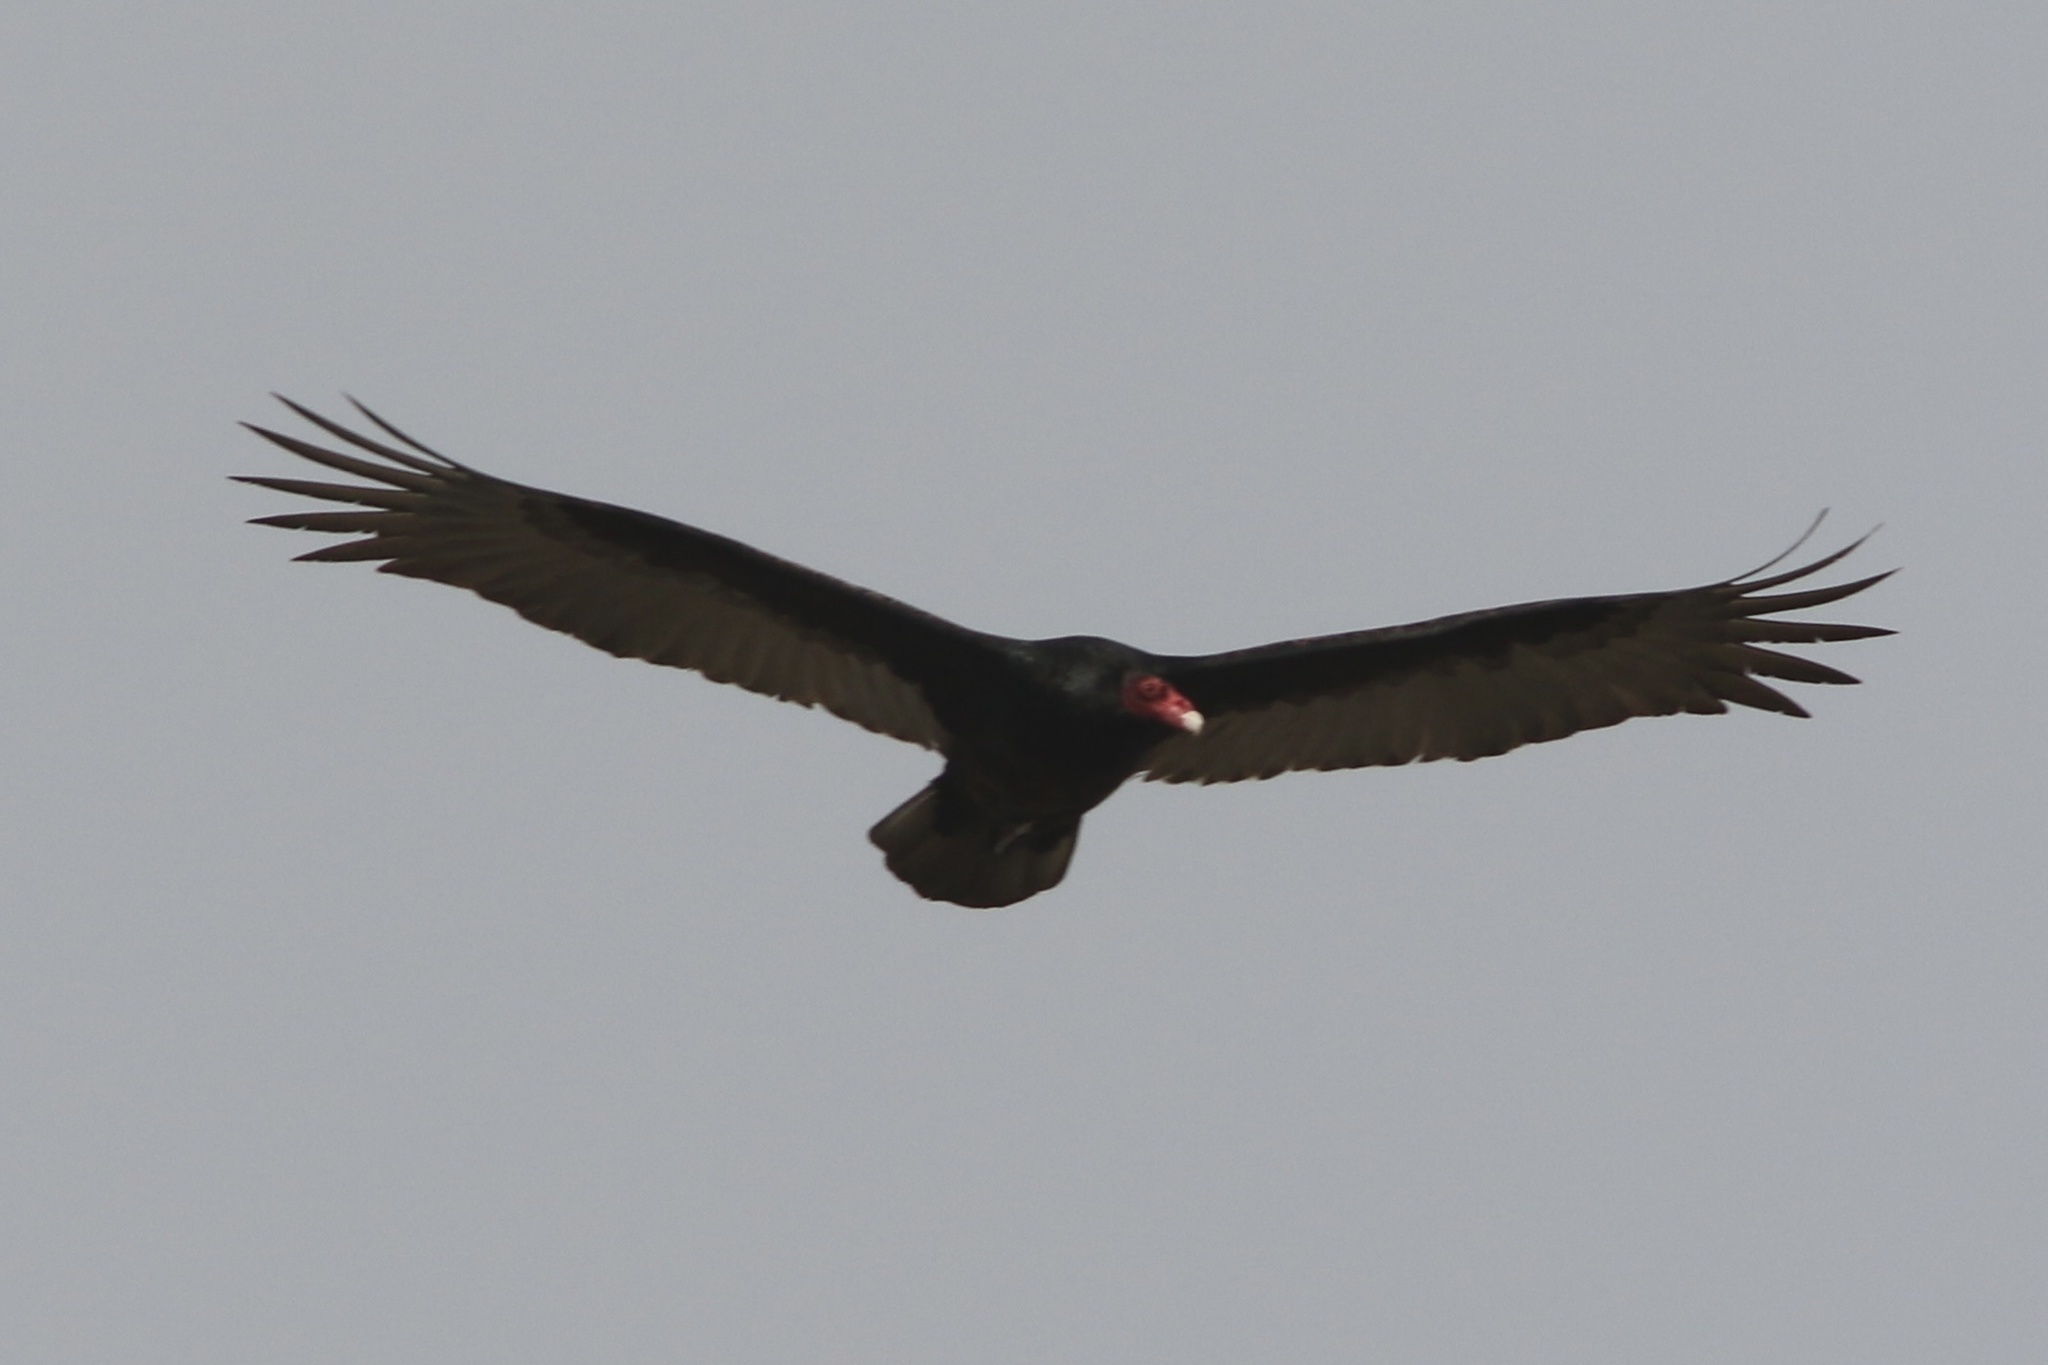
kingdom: Animalia
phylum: Chordata
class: Aves
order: Accipitriformes
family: Cathartidae
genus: Cathartes
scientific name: Cathartes aura
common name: Turkey vulture
